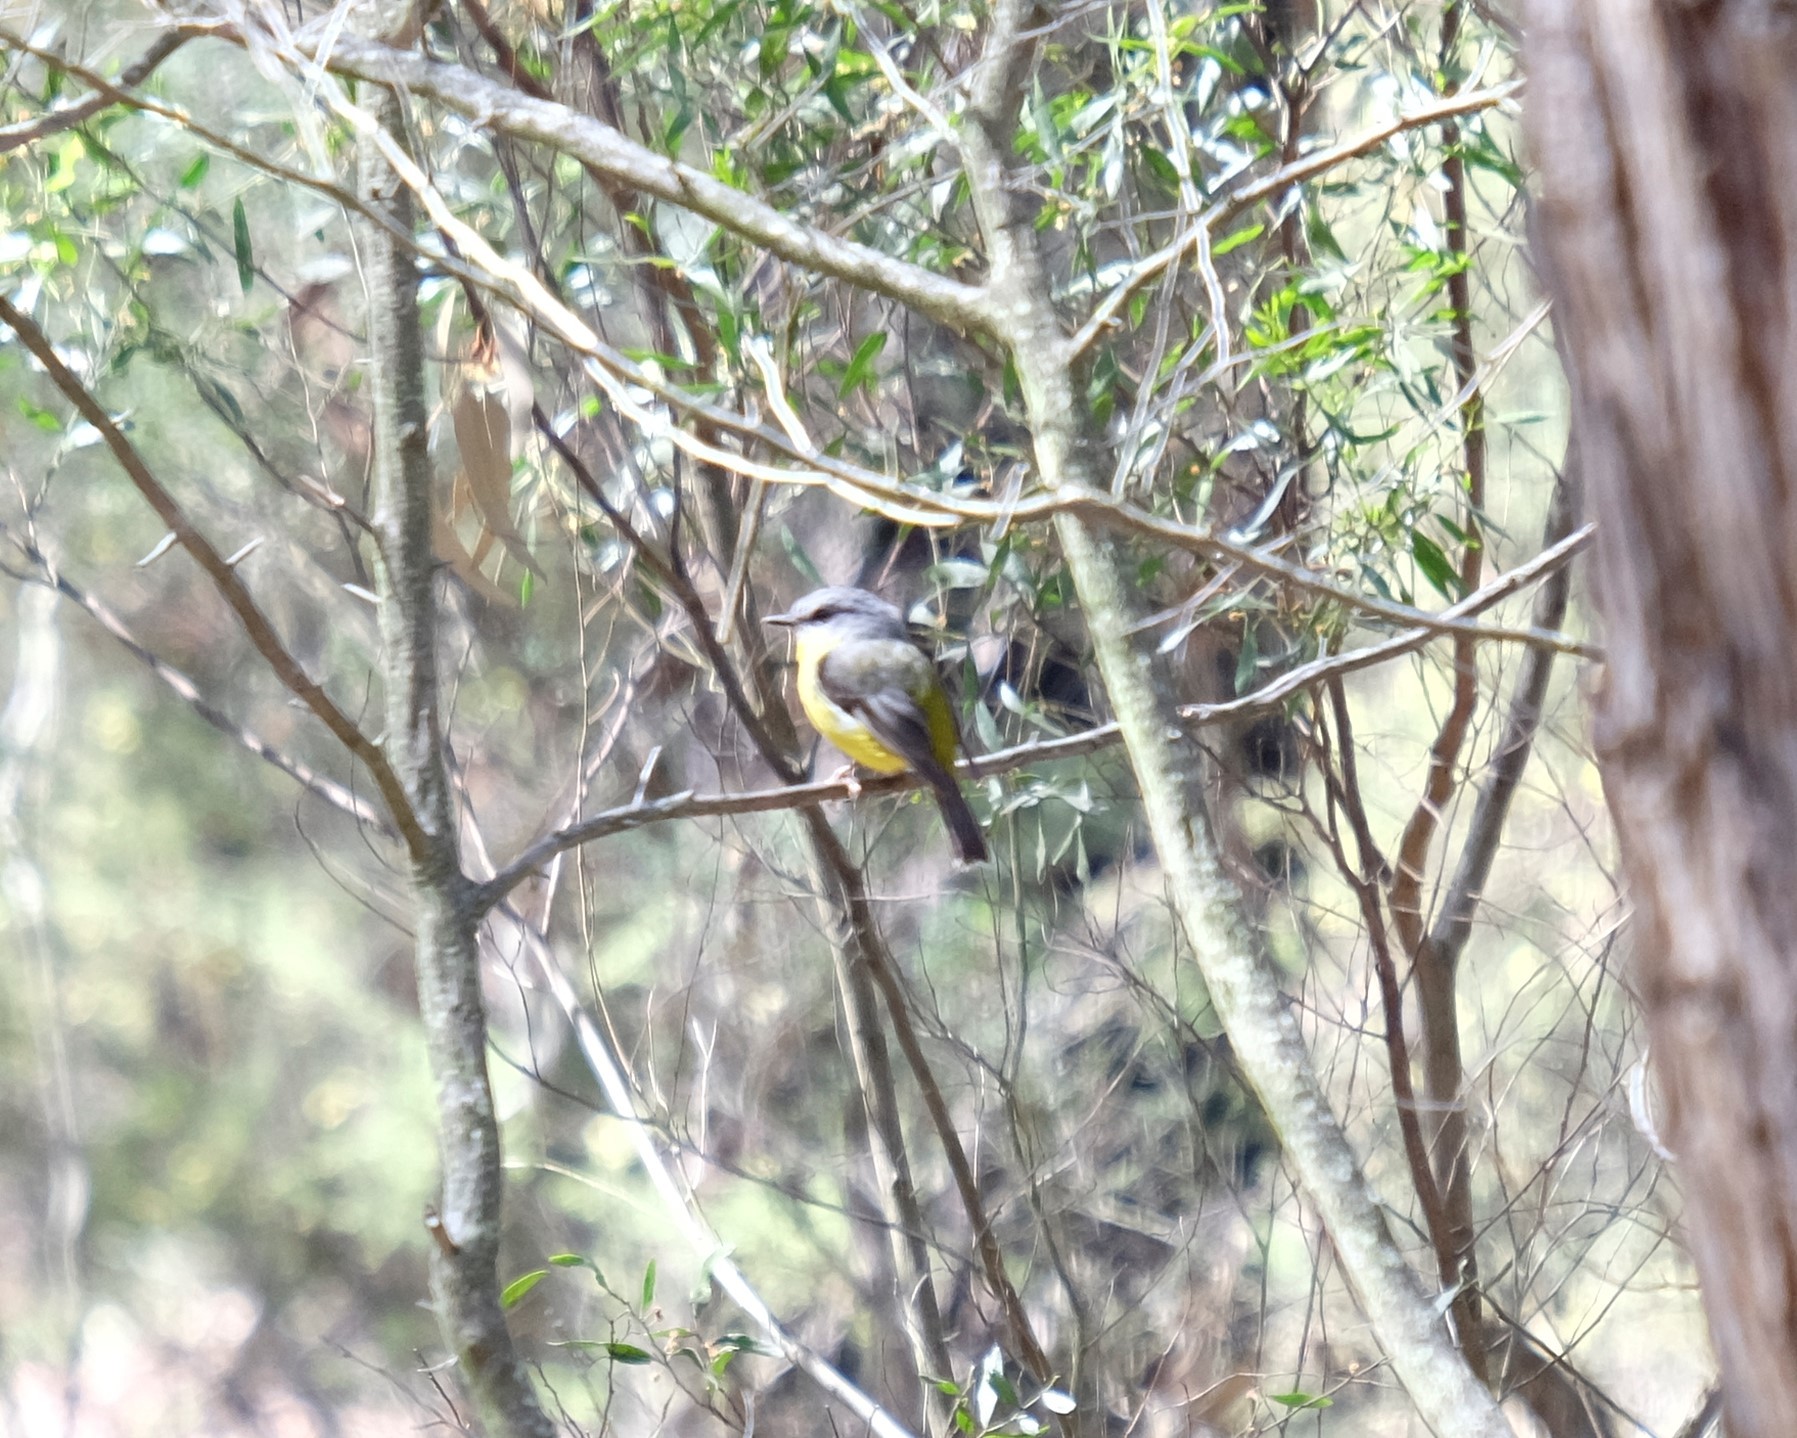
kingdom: Animalia
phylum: Chordata
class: Aves
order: Passeriformes
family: Petroicidae
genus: Eopsaltria
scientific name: Eopsaltria australis
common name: Eastern yellow robin
